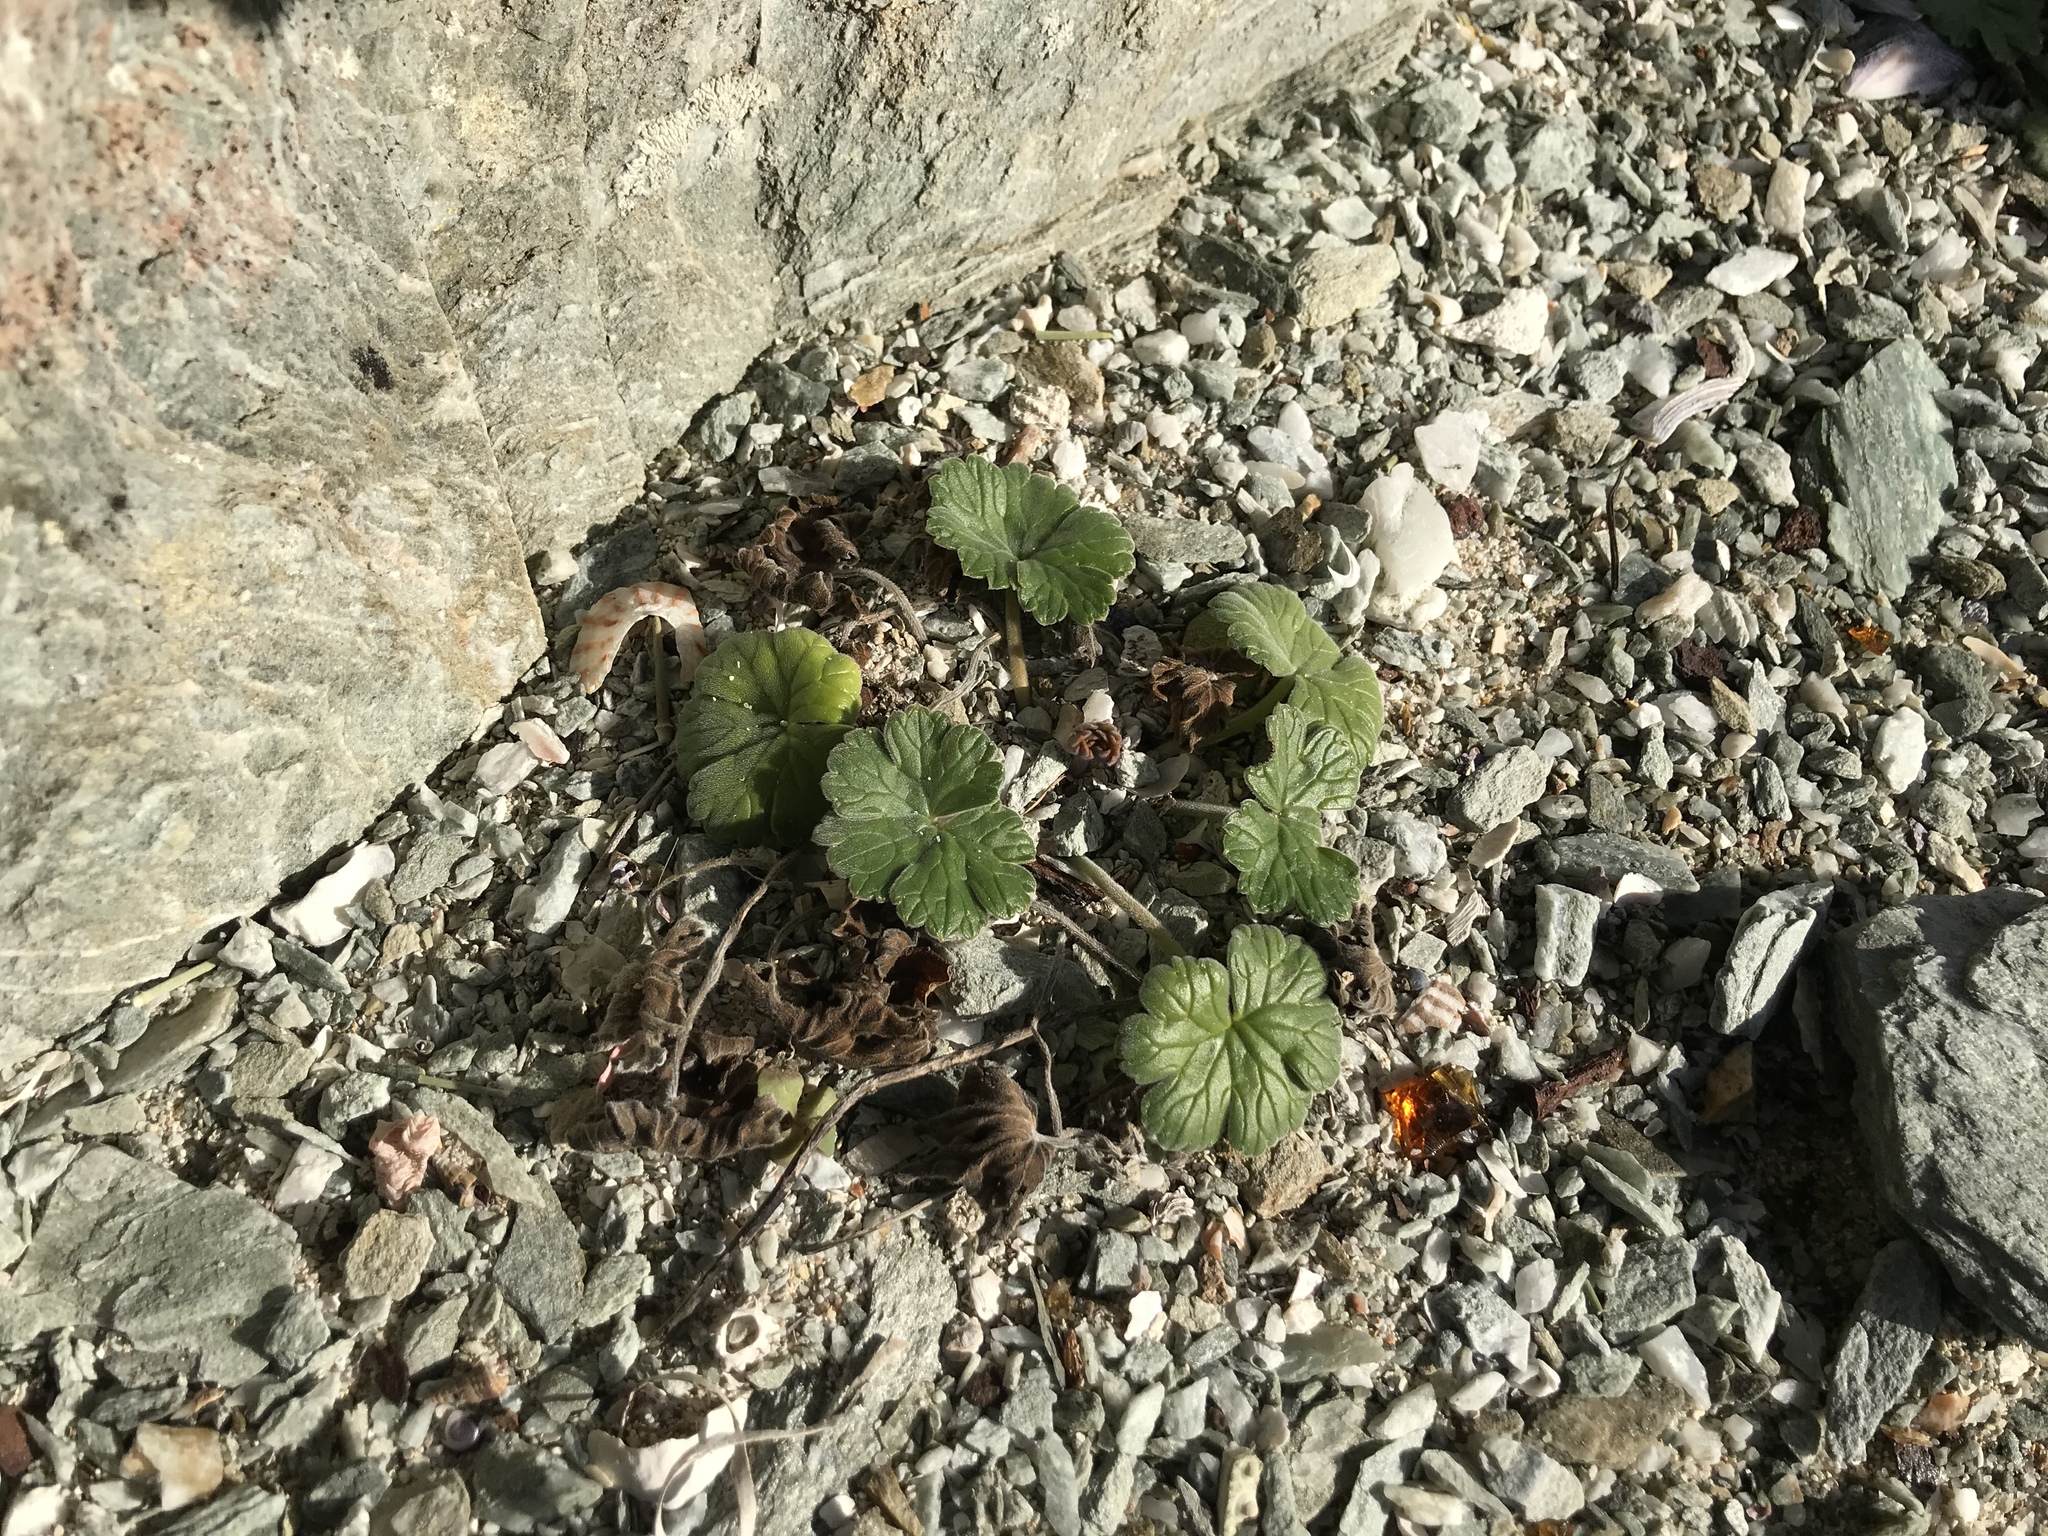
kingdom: Plantae
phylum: Tracheophyta
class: Magnoliopsida
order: Geraniales
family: Geraniaceae
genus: Geranium
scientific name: Geranium traversii
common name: Cranesbill
